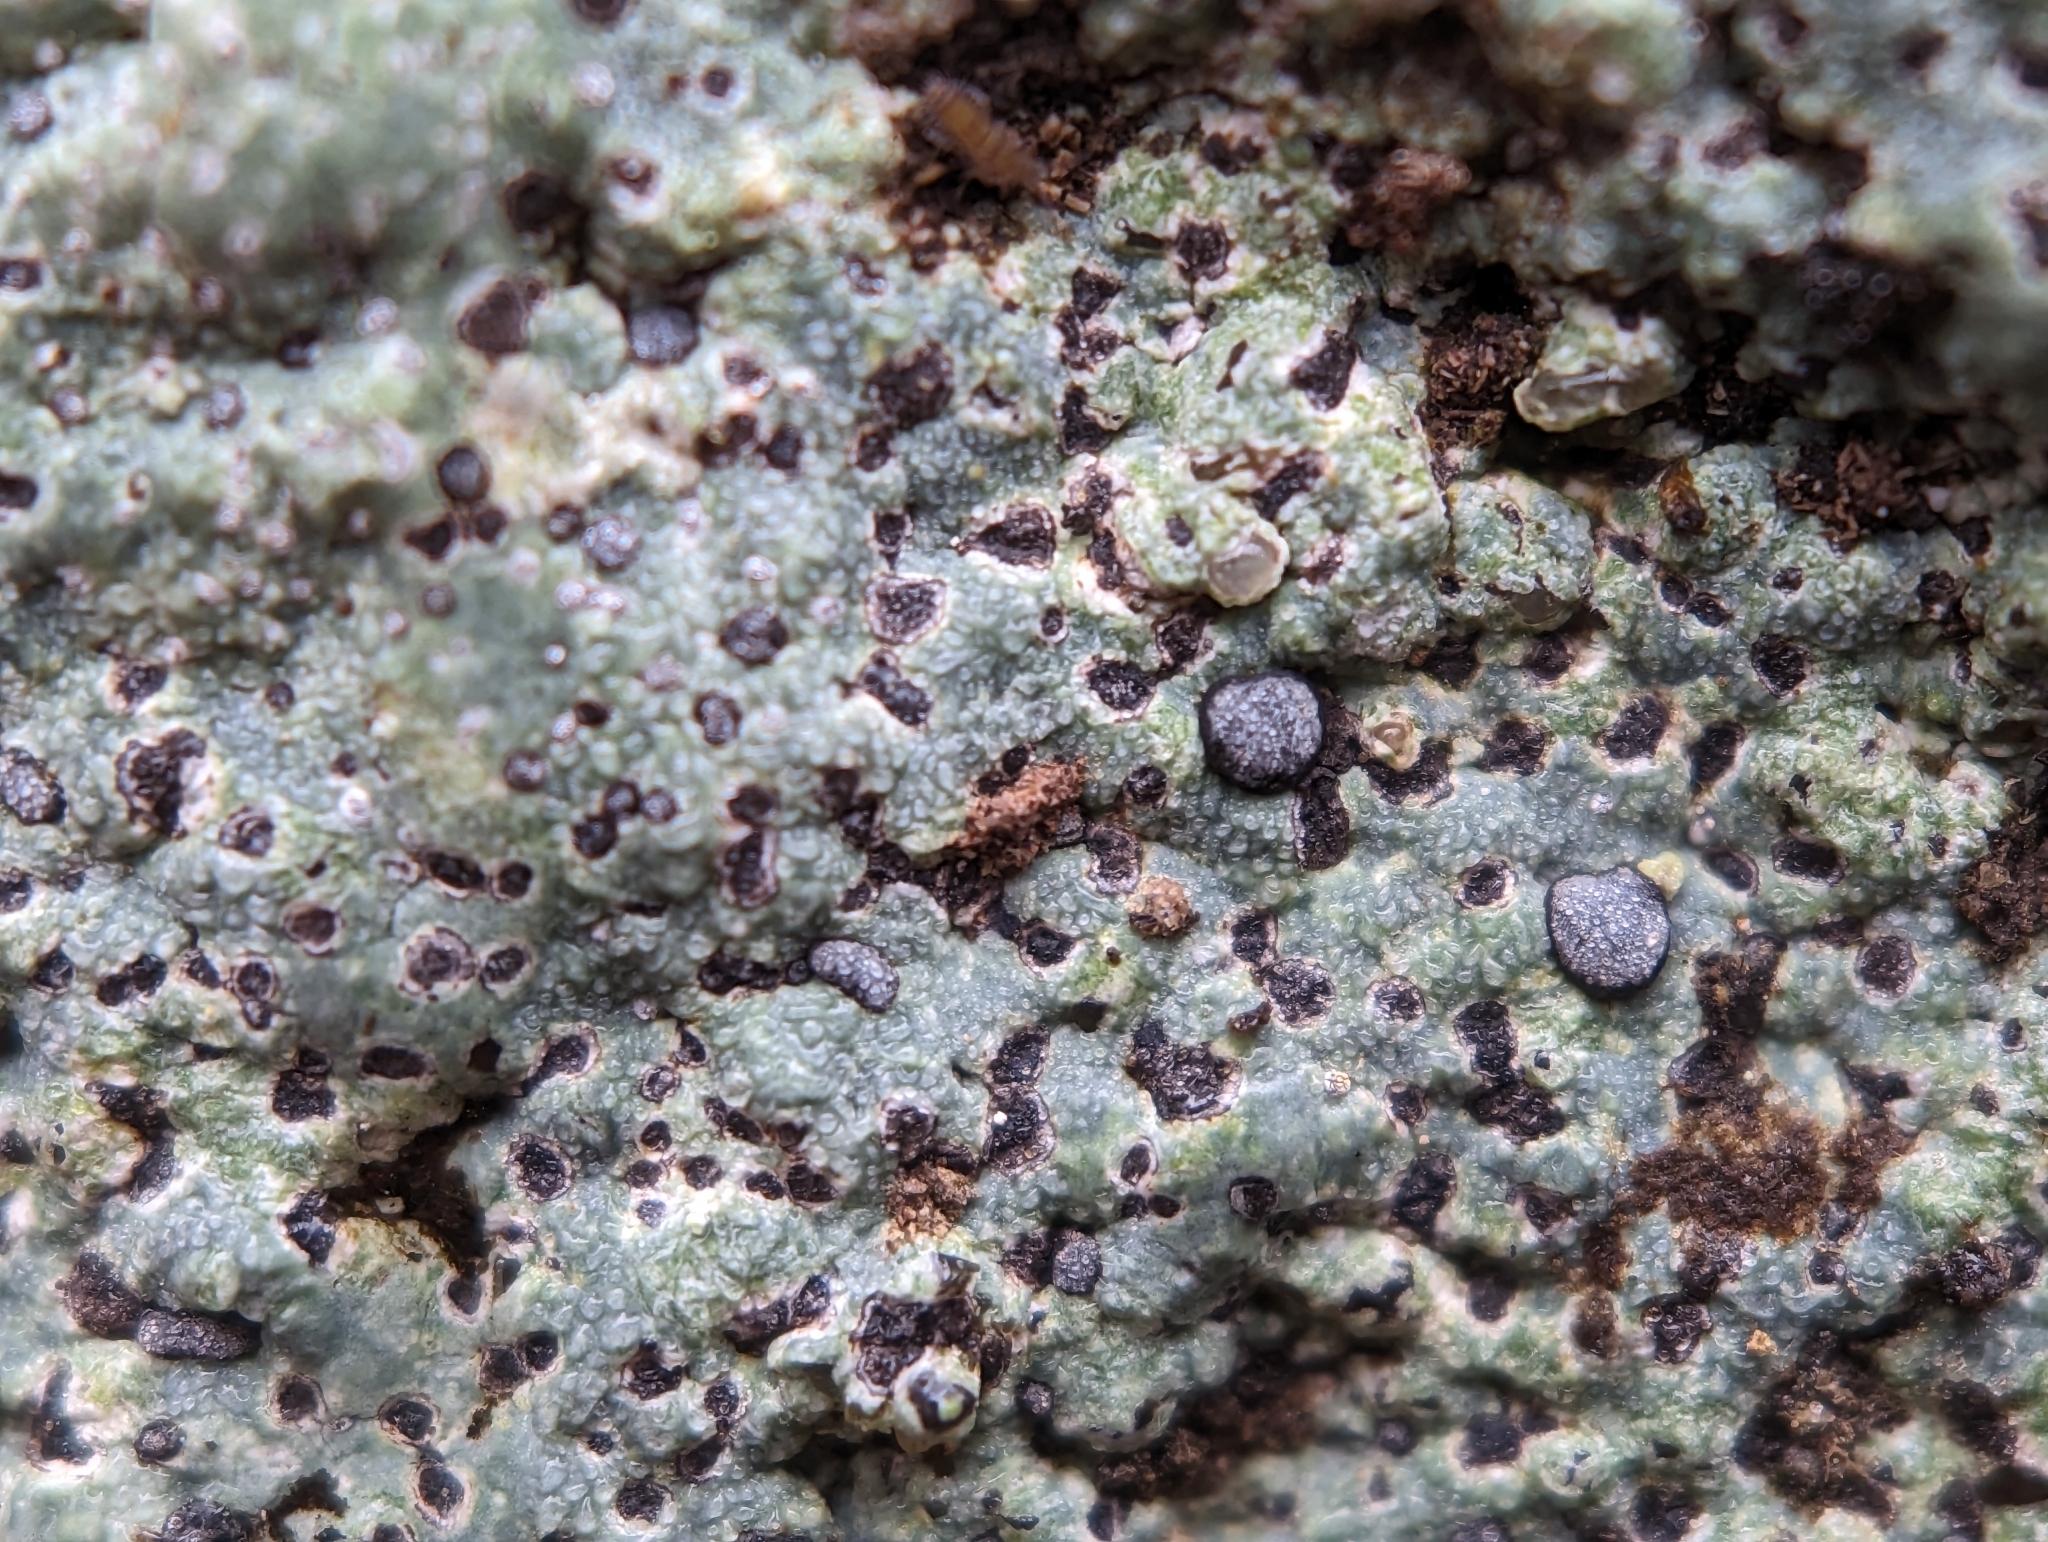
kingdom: Fungi
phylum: Ascomycota
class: Lecanoromycetes
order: Lecideales
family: Lecideaceae
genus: Porpidia
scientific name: Porpidia albocaerulescens
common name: Smokey-eyed boulder lichen
